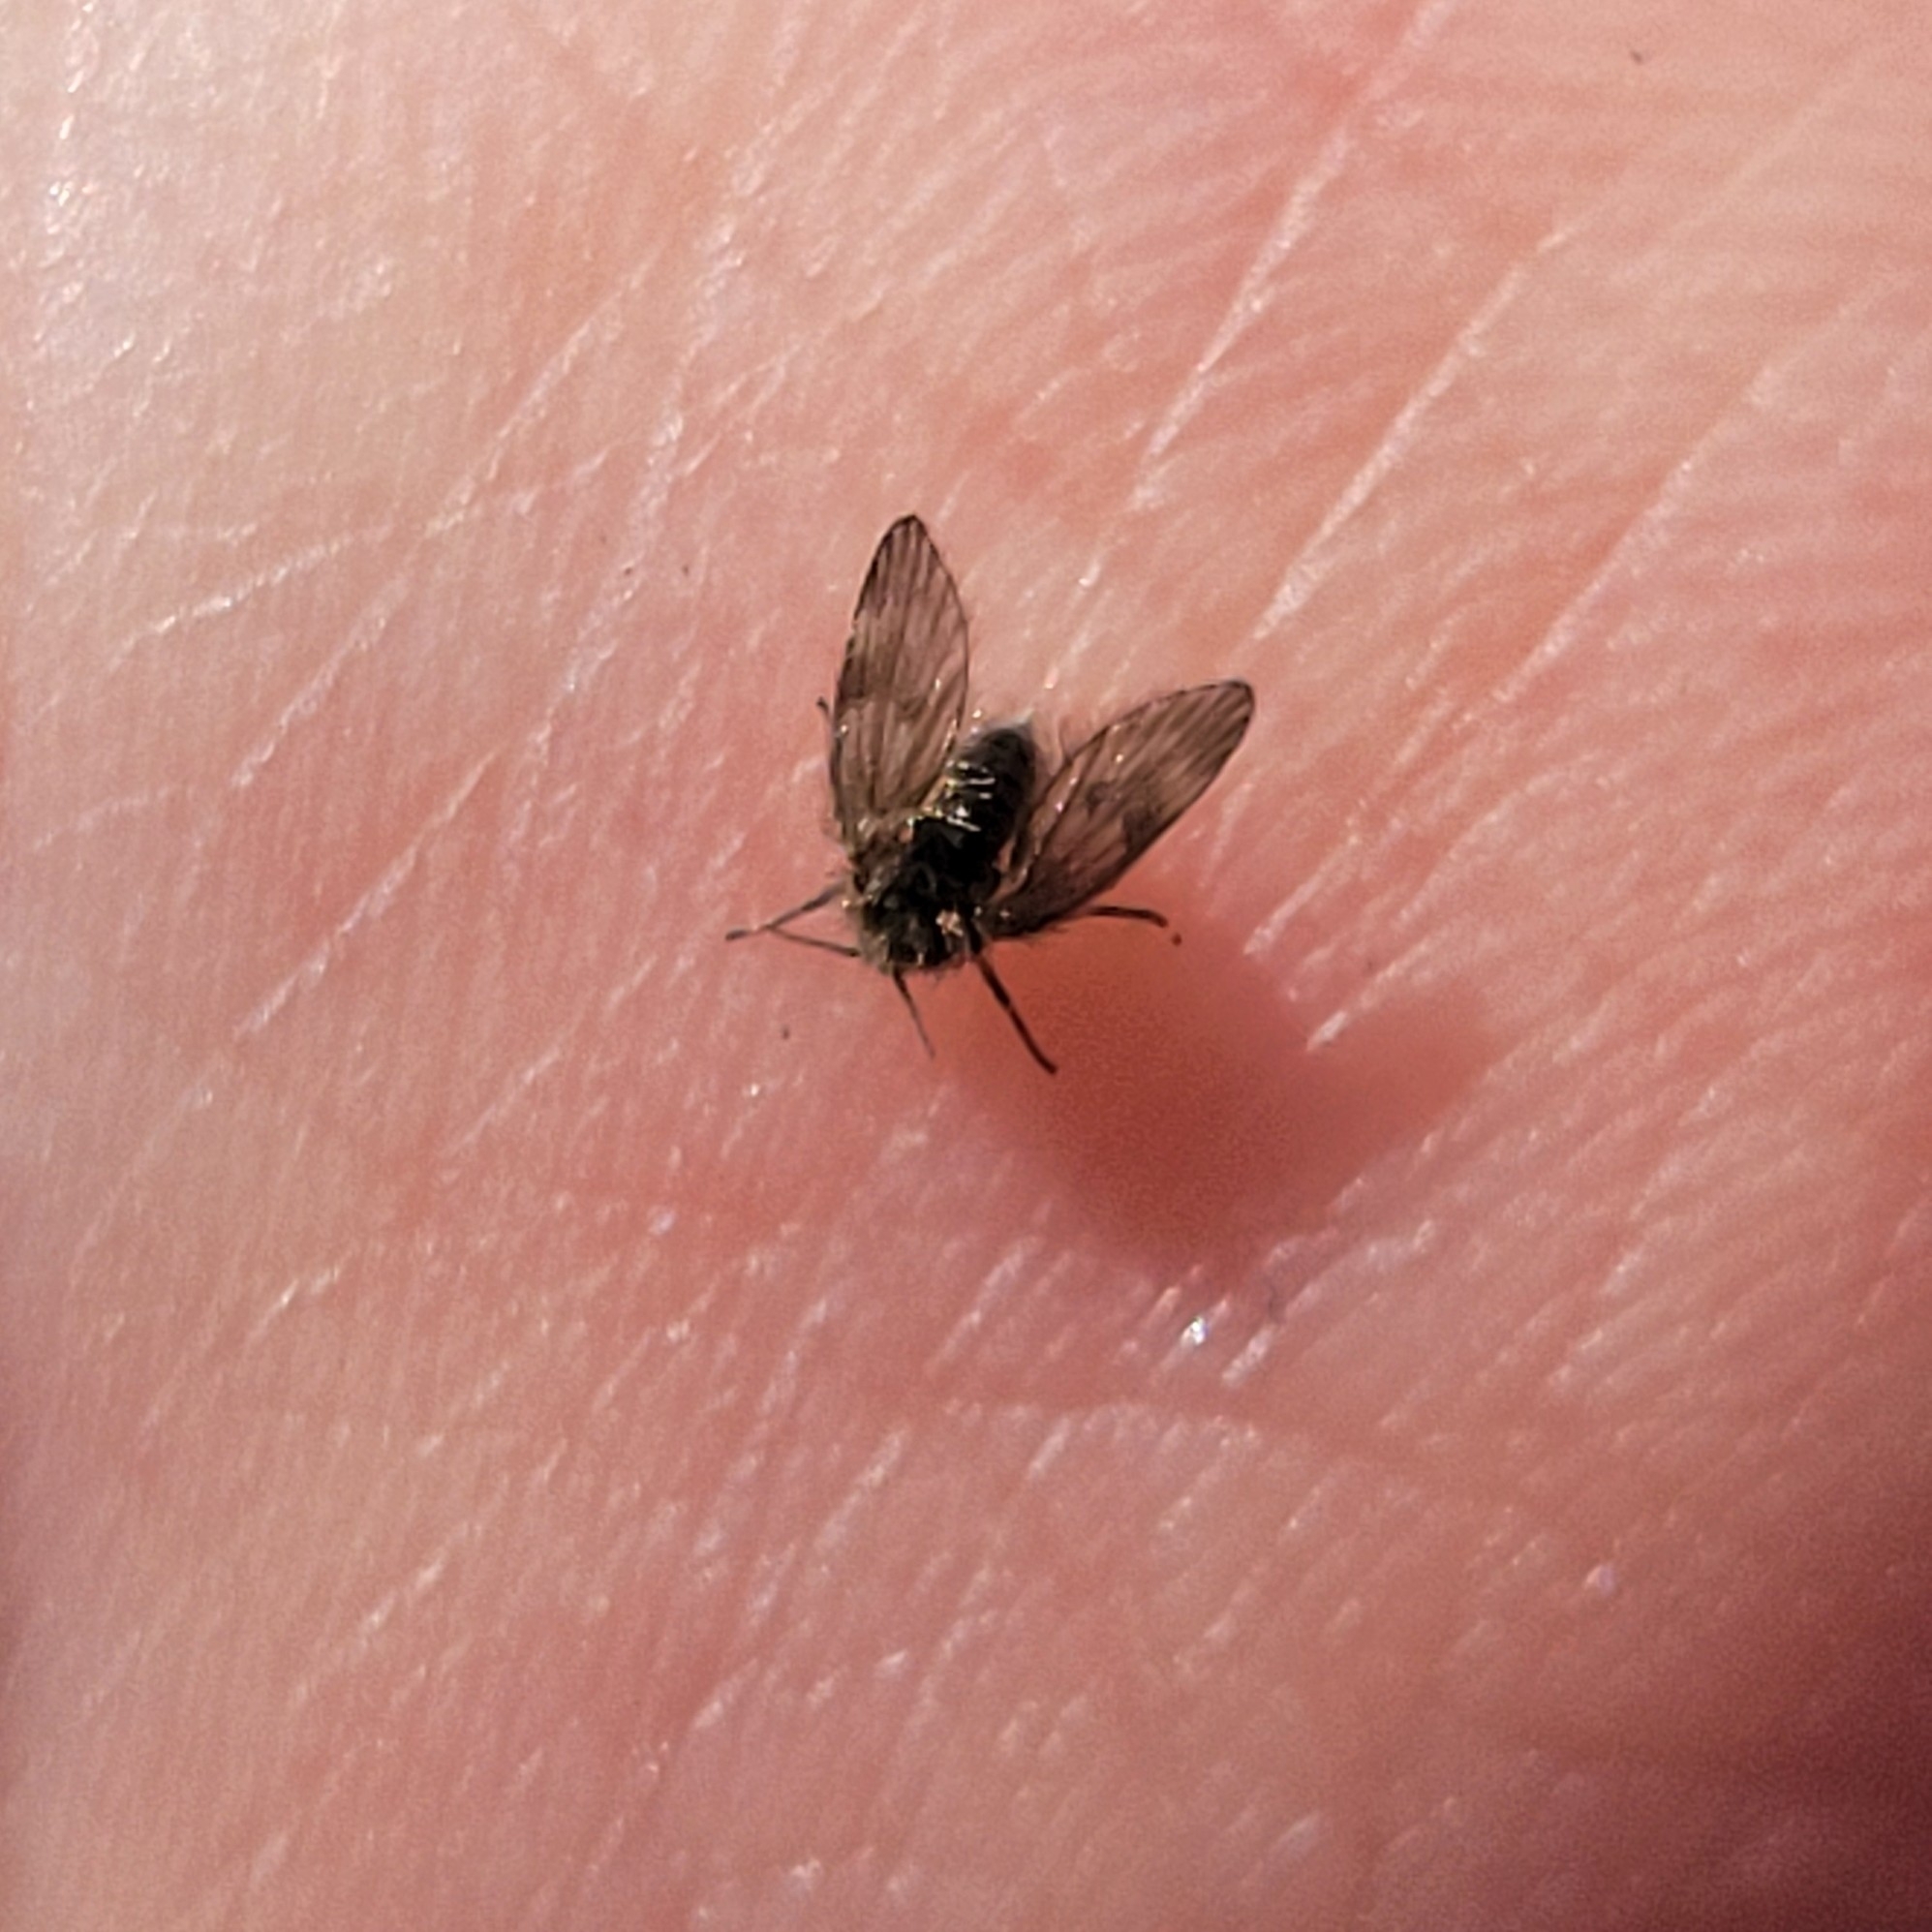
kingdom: Animalia
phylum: Arthropoda
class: Insecta
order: Diptera
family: Psychodidae
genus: Clogmia
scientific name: Clogmia albipunctatus
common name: White-spotted moth fly
